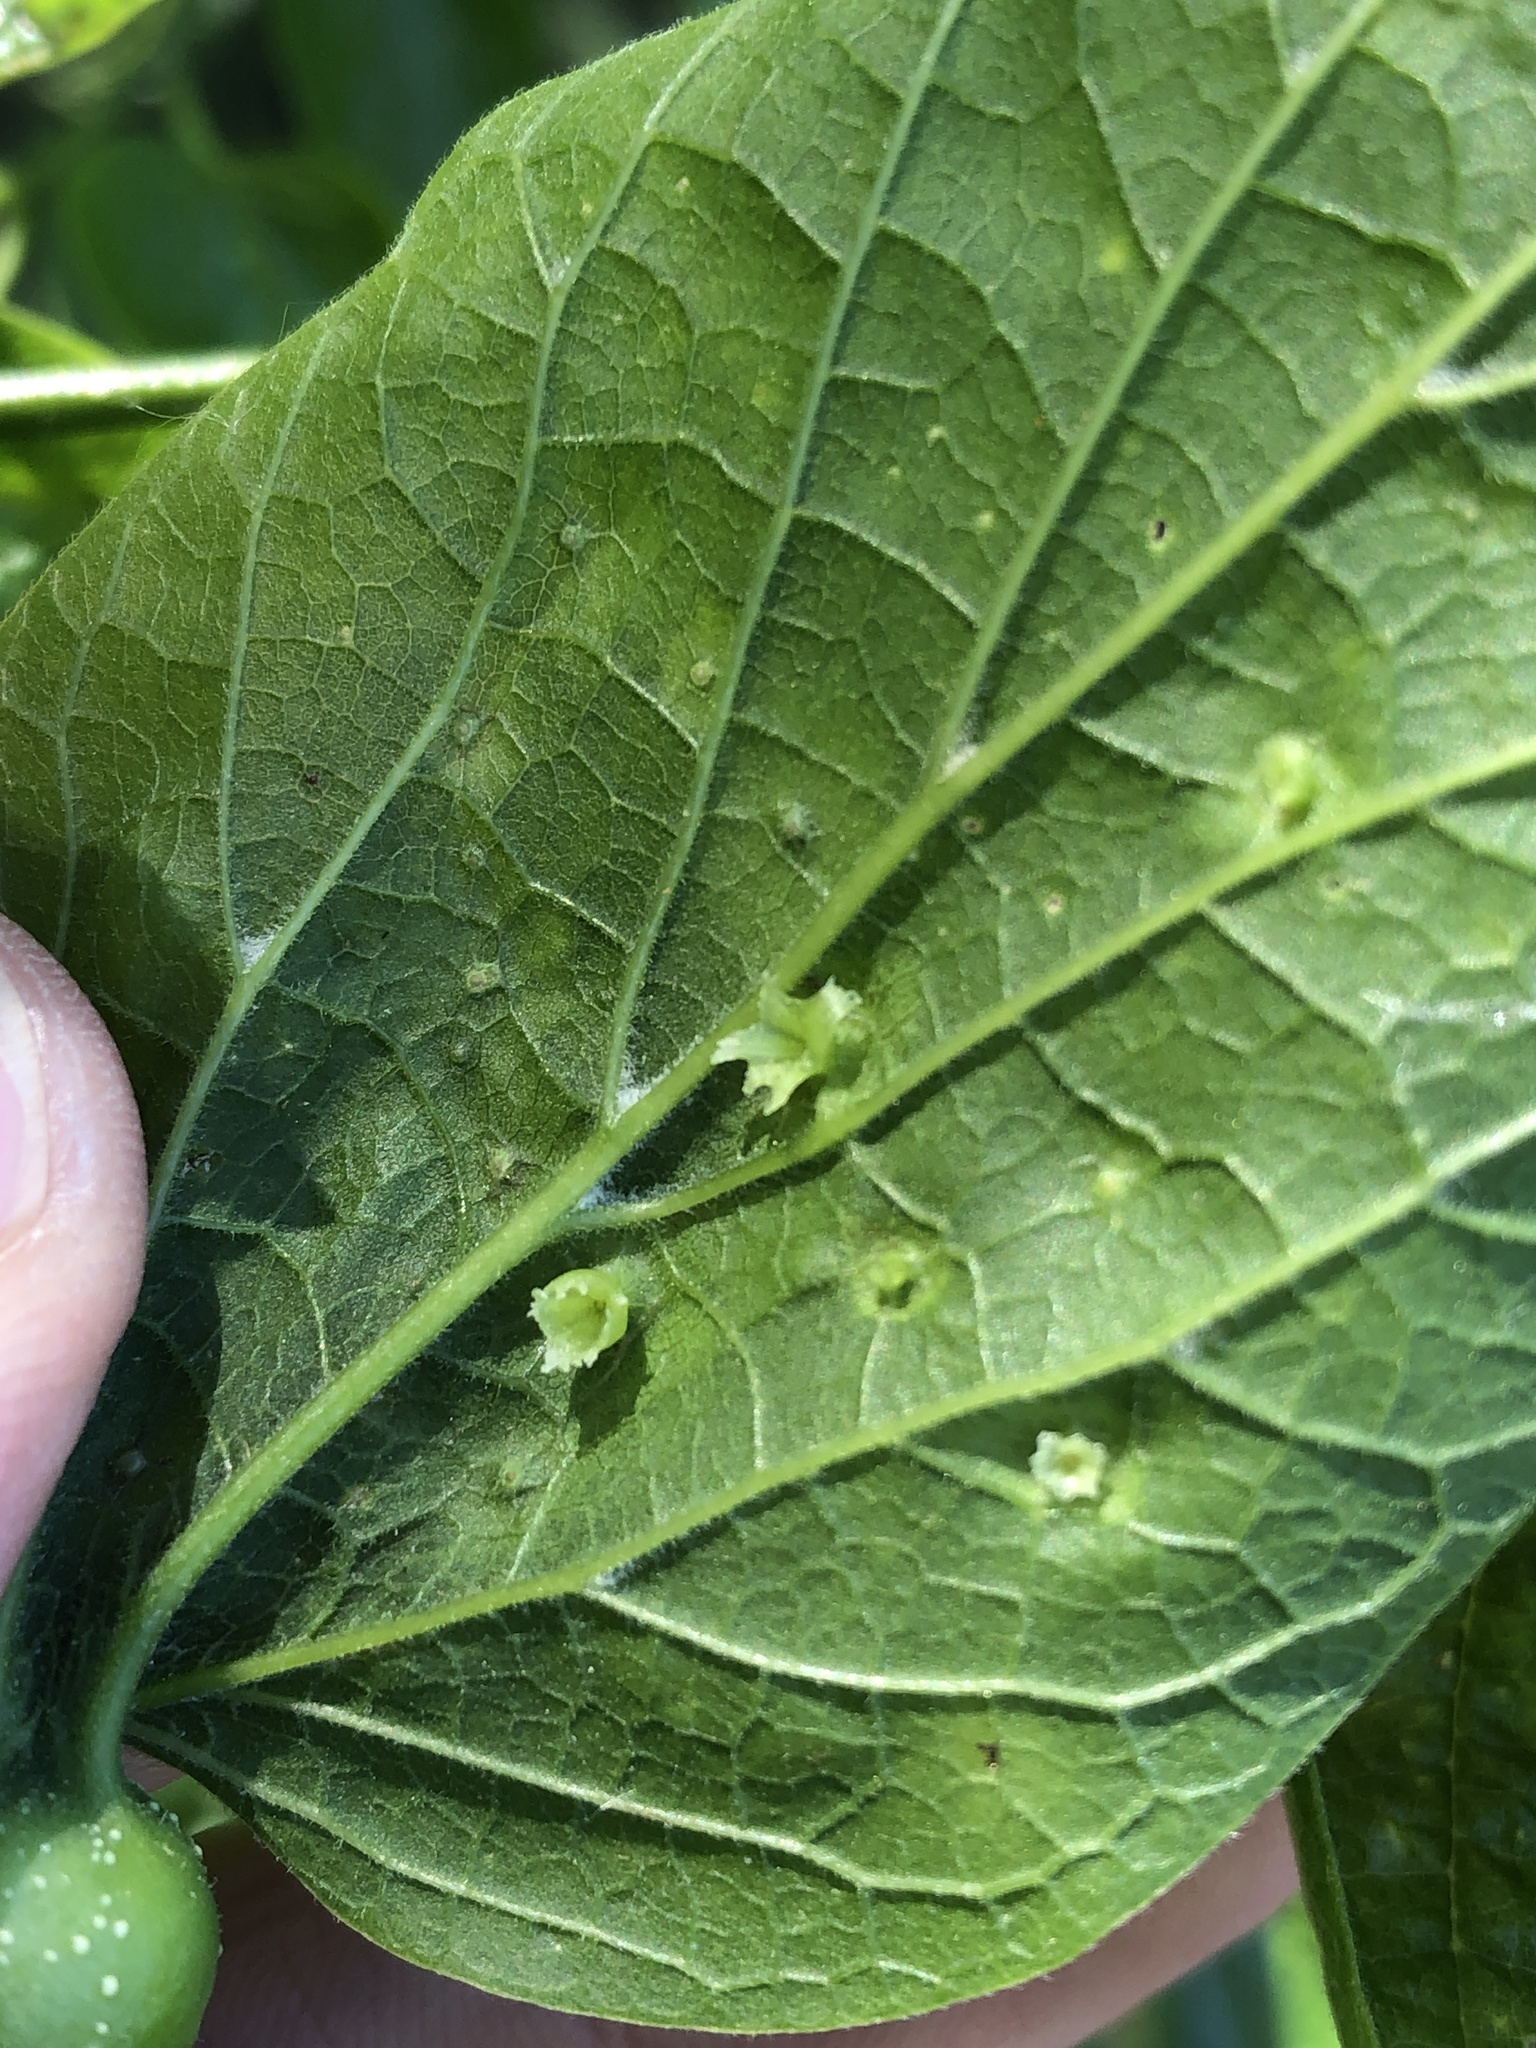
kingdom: Animalia
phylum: Arthropoda
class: Insecta
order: Hemiptera
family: Aphalaridae
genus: Pachypsylla
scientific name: Pachypsylla celtidisasterisca
